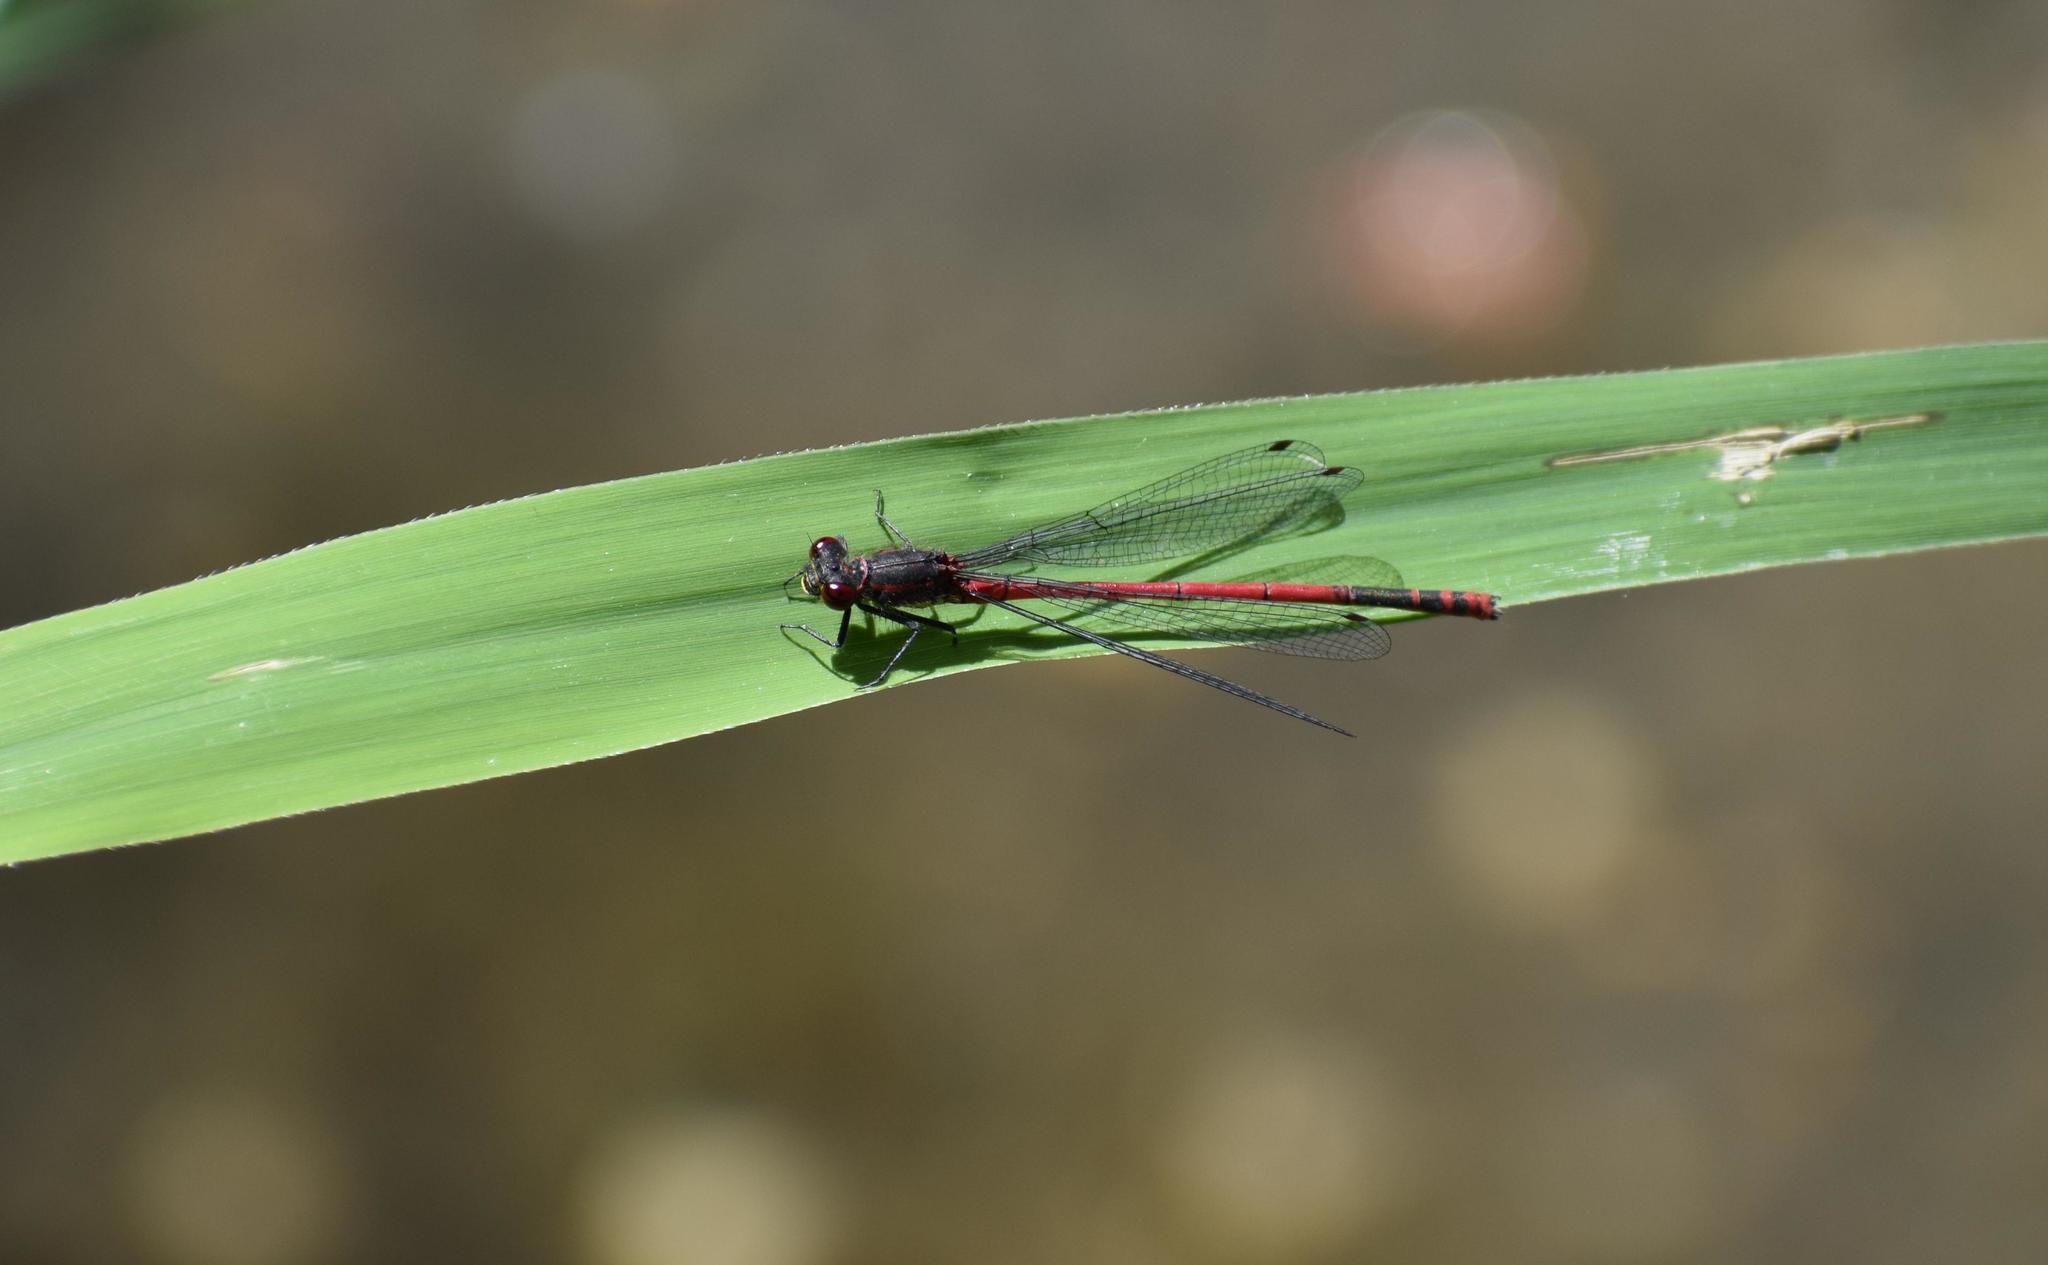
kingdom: Animalia
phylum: Arthropoda
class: Insecta
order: Odonata
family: Coenagrionidae
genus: Pyrrhosoma
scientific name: Pyrrhosoma nymphula
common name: Large red damsel
